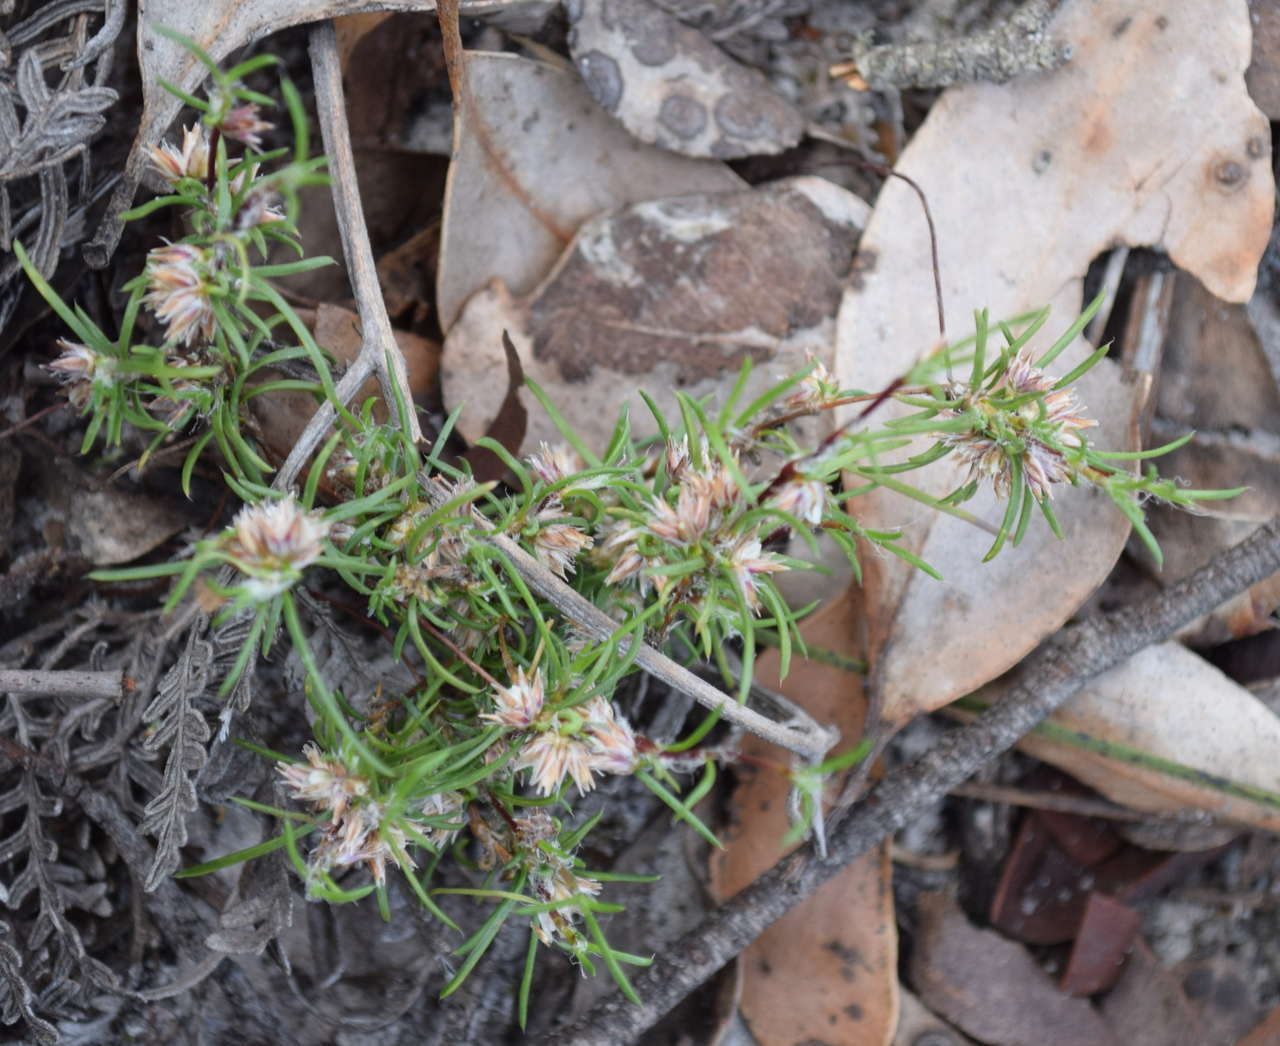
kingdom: Plantae
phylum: Tracheophyta
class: Liliopsida
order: Asparagales
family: Asparagaceae
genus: Laxmannia
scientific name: Laxmannia orientalis
